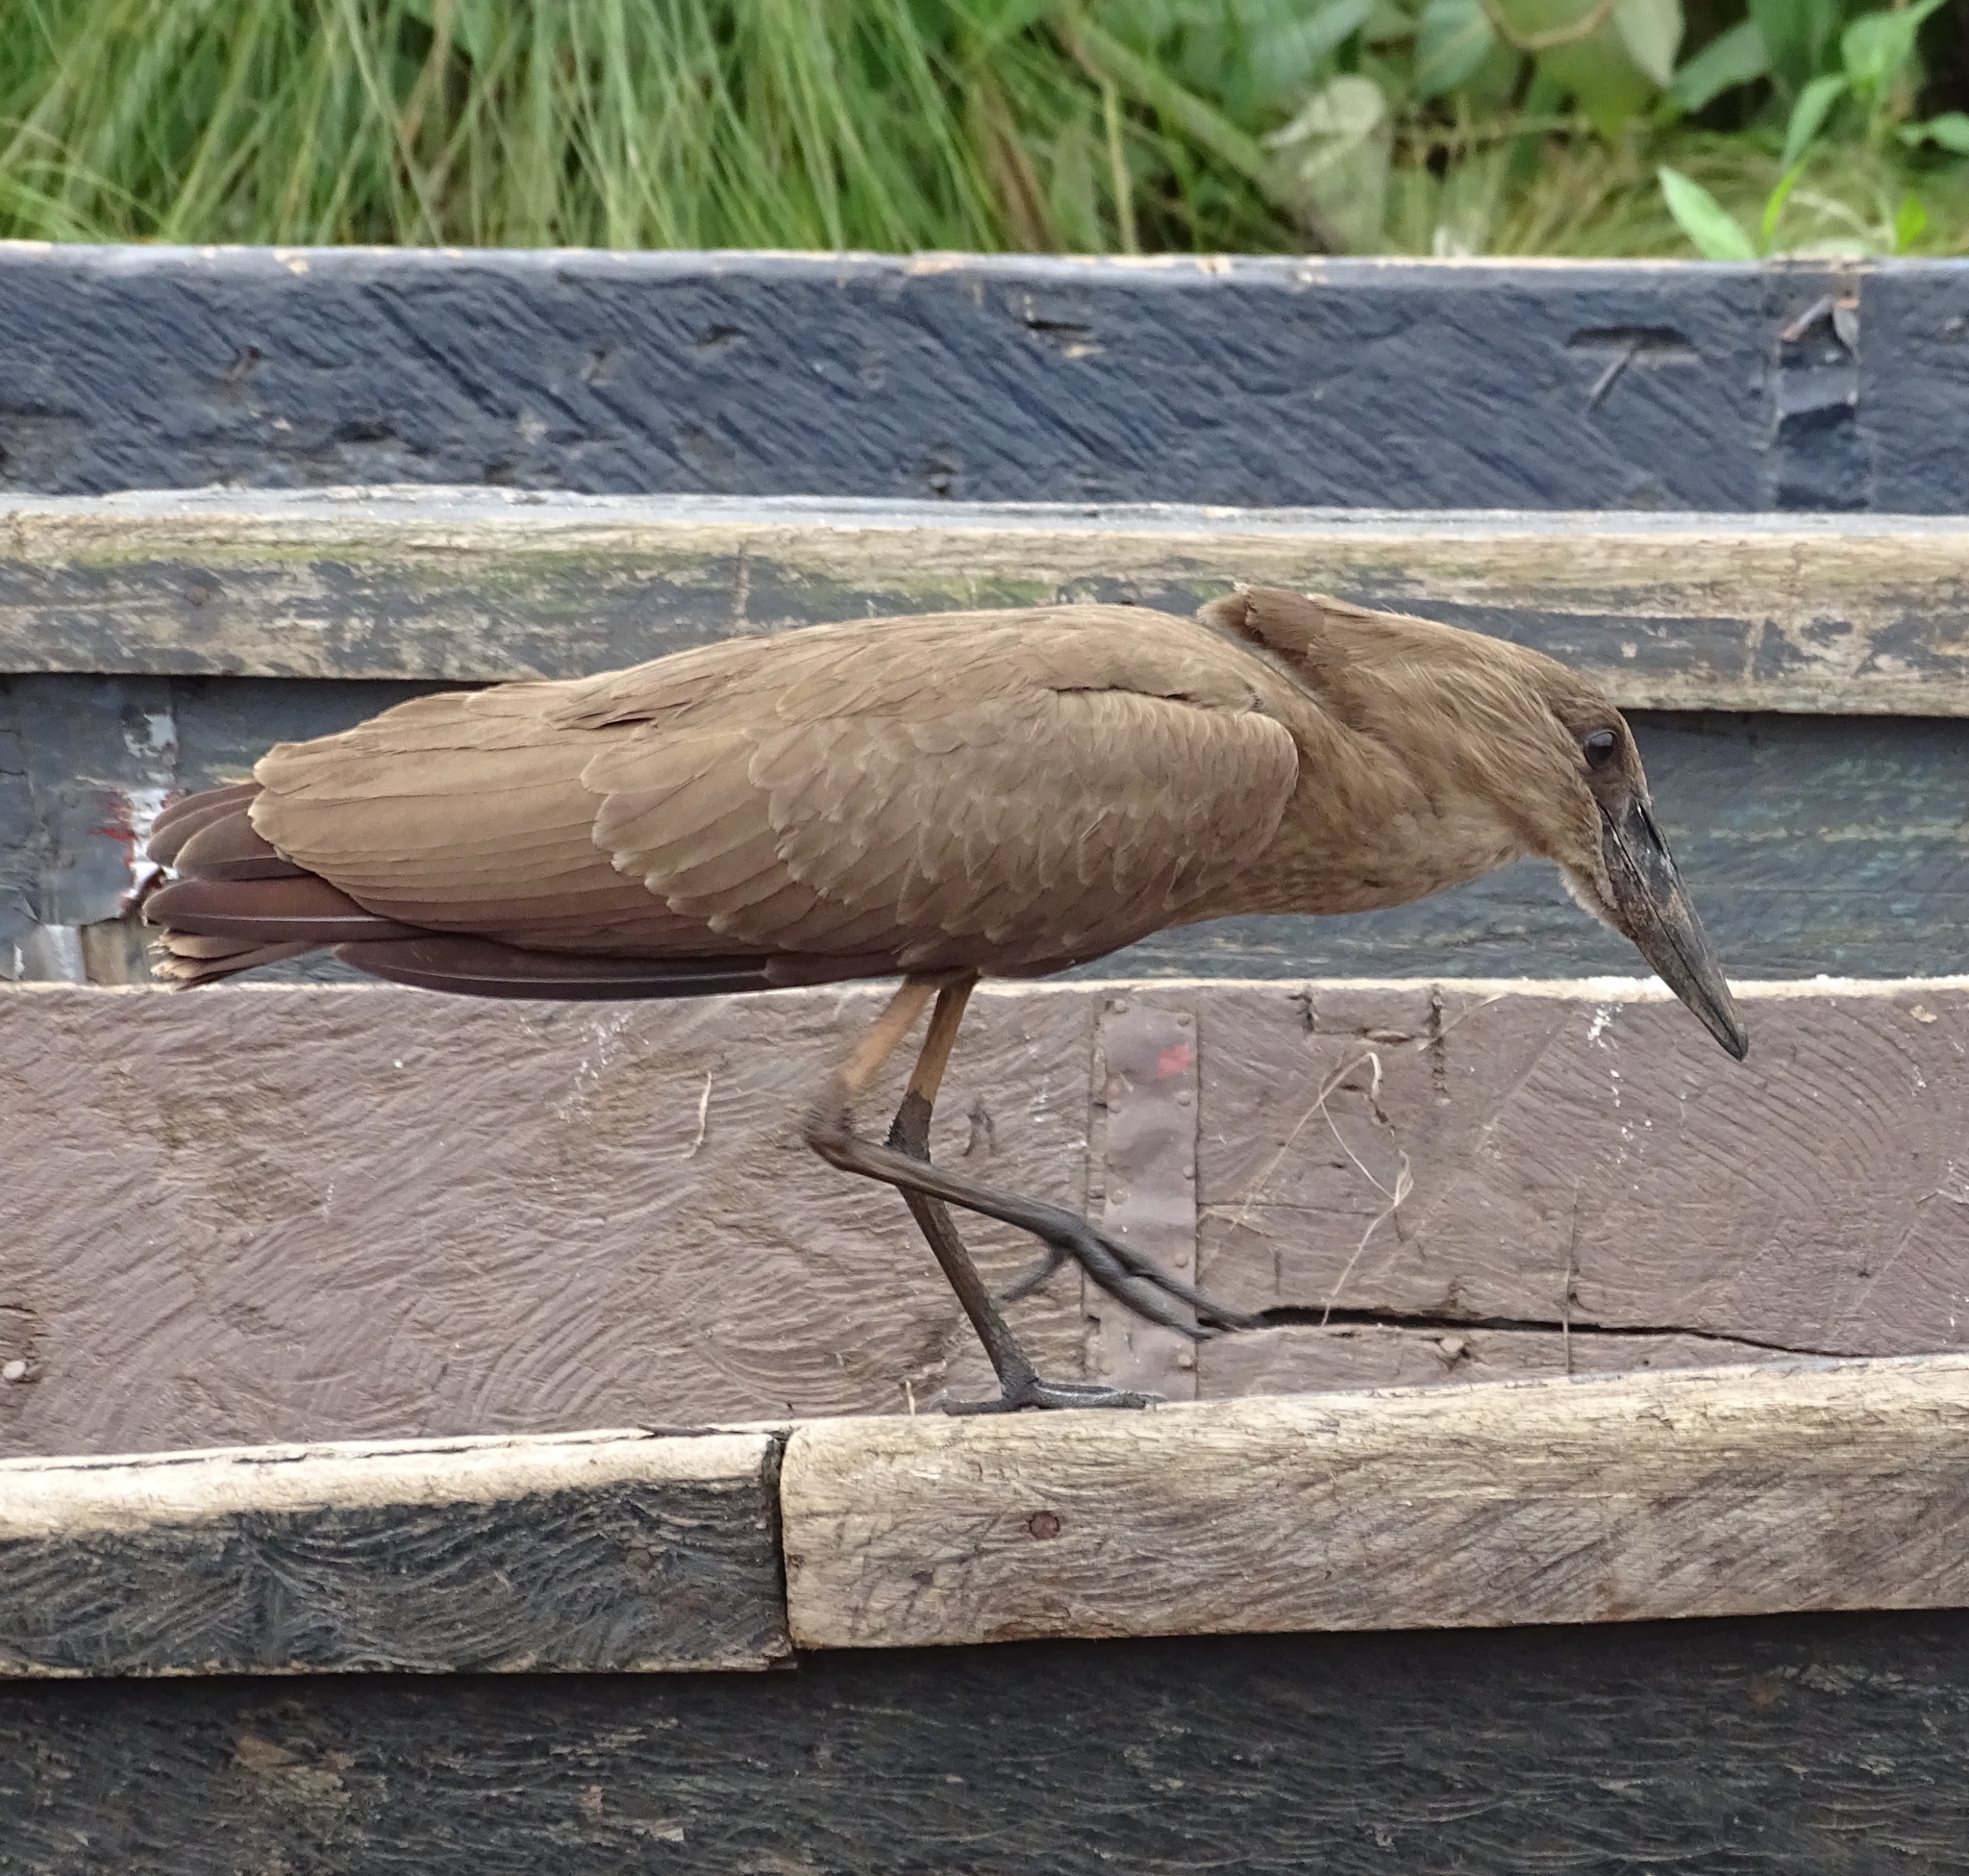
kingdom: Animalia
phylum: Chordata
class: Aves
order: Pelecaniformes
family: Scopidae
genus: Scopus
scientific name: Scopus umbretta
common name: Hamerkop
